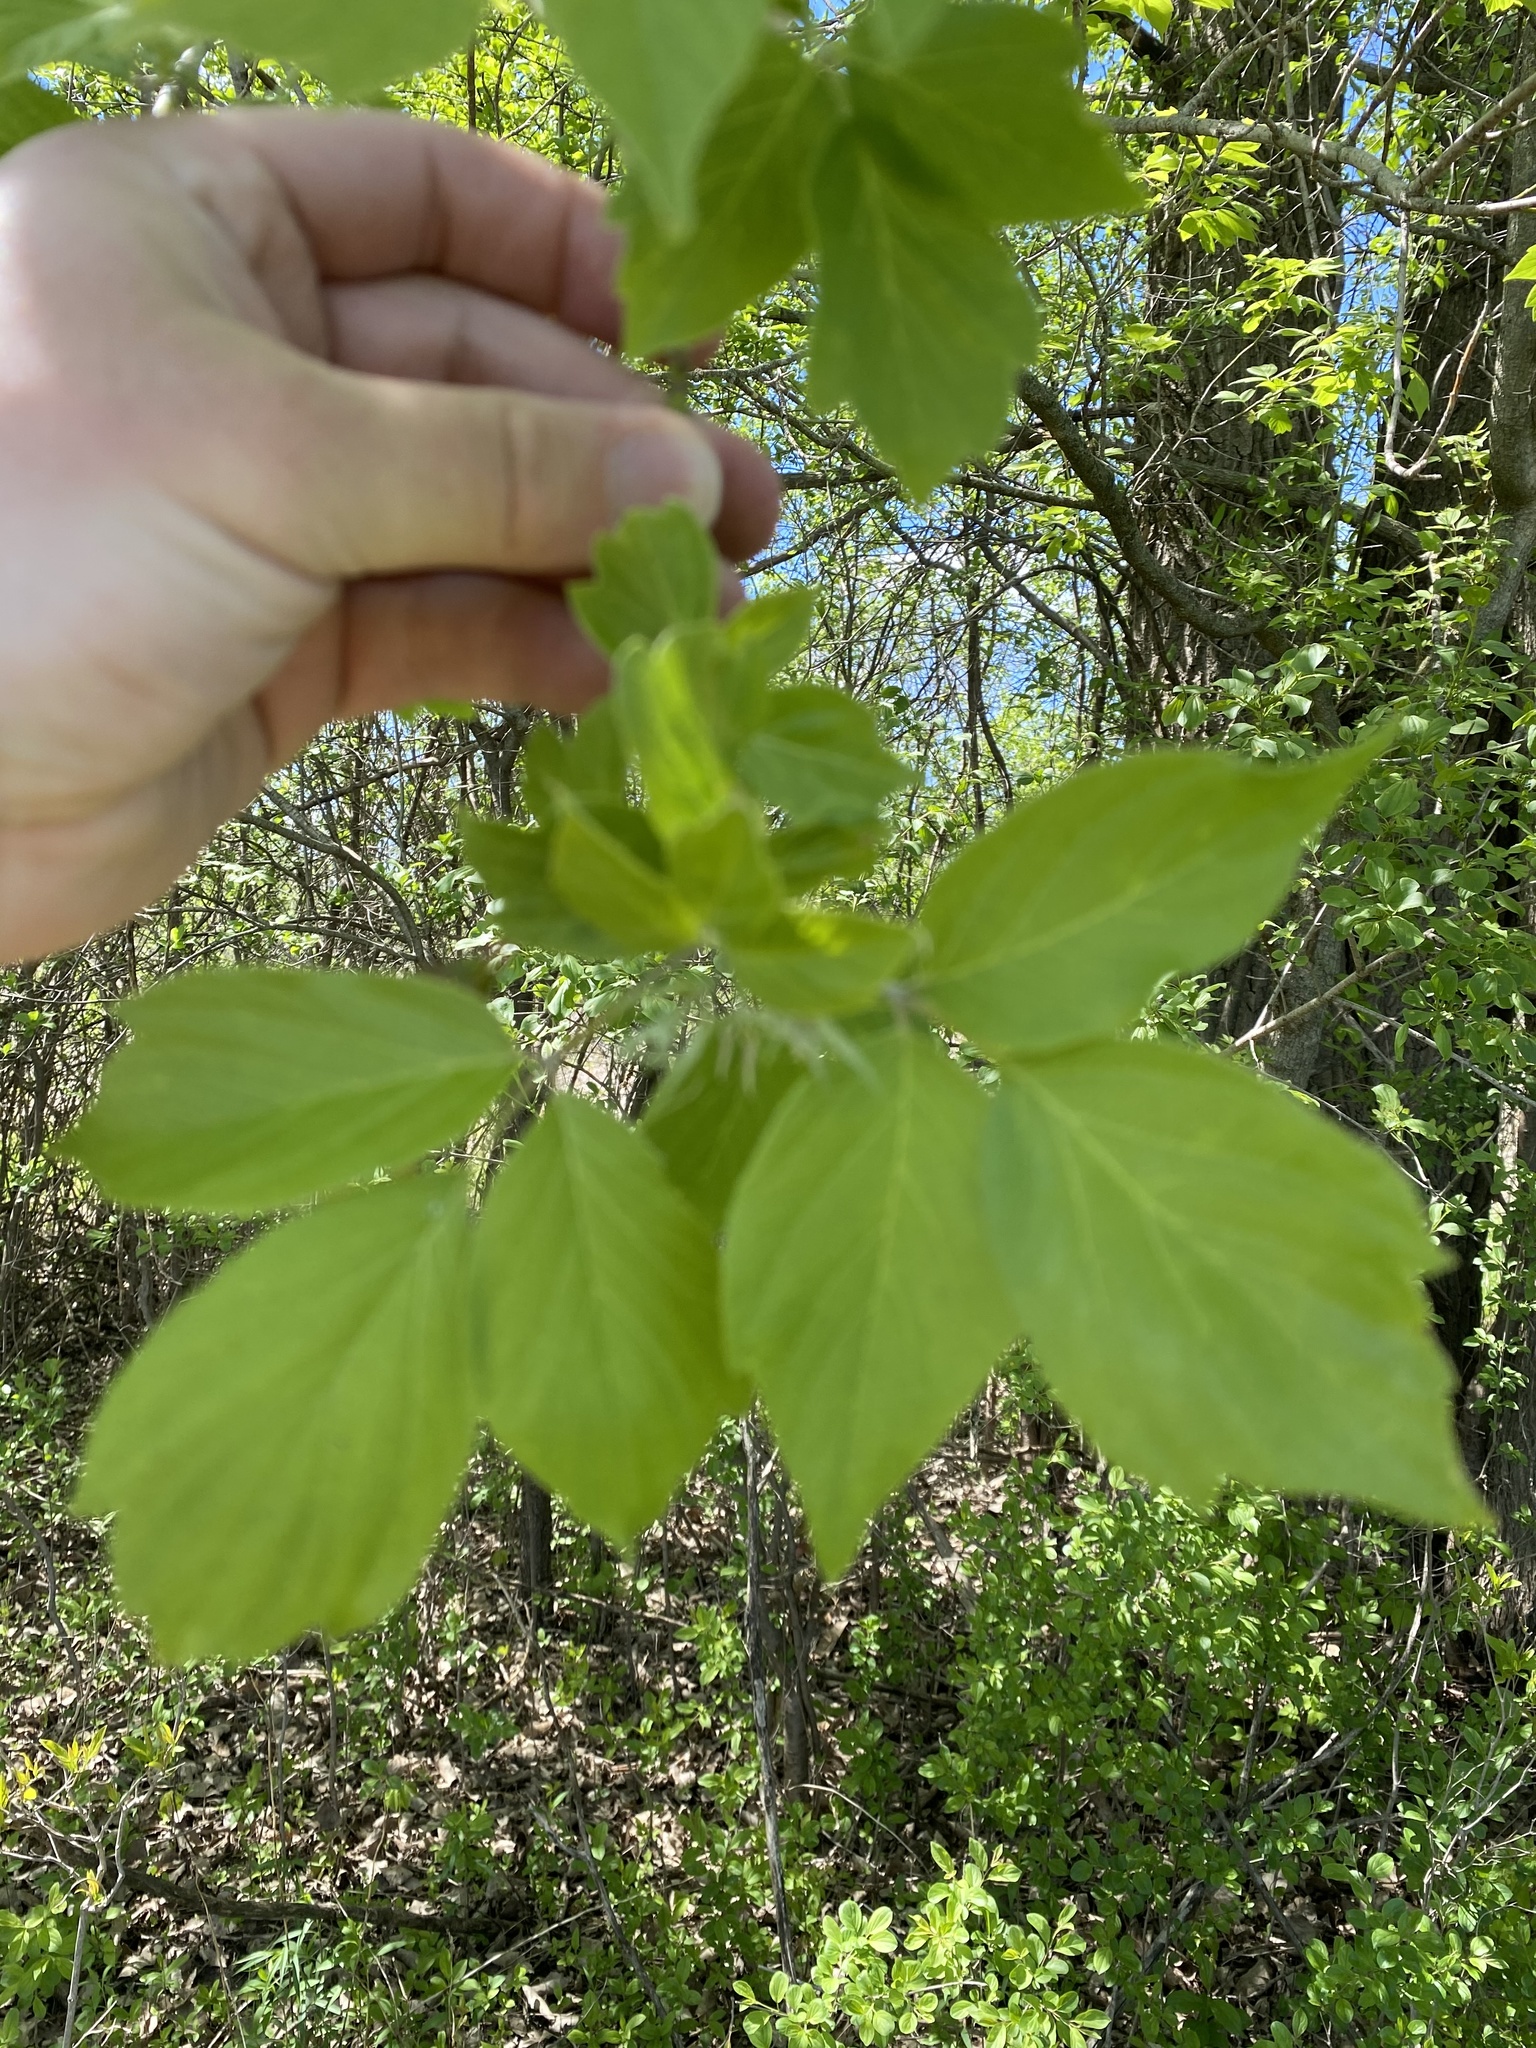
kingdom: Plantae
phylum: Tracheophyta
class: Magnoliopsida
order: Sapindales
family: Sapindaceae
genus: Acer
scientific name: Acer negundo
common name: Ashleaf maple
